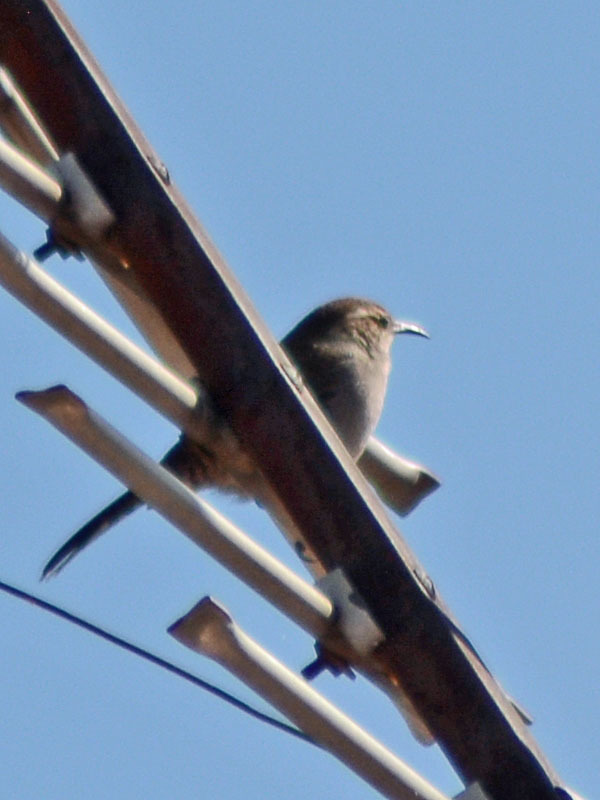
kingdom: Animalia
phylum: Chordata
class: Aves
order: Passeriformes
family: Troglodytidae
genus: Thryomanes
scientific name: Thryomanes bewickii
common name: Bewick's wren
